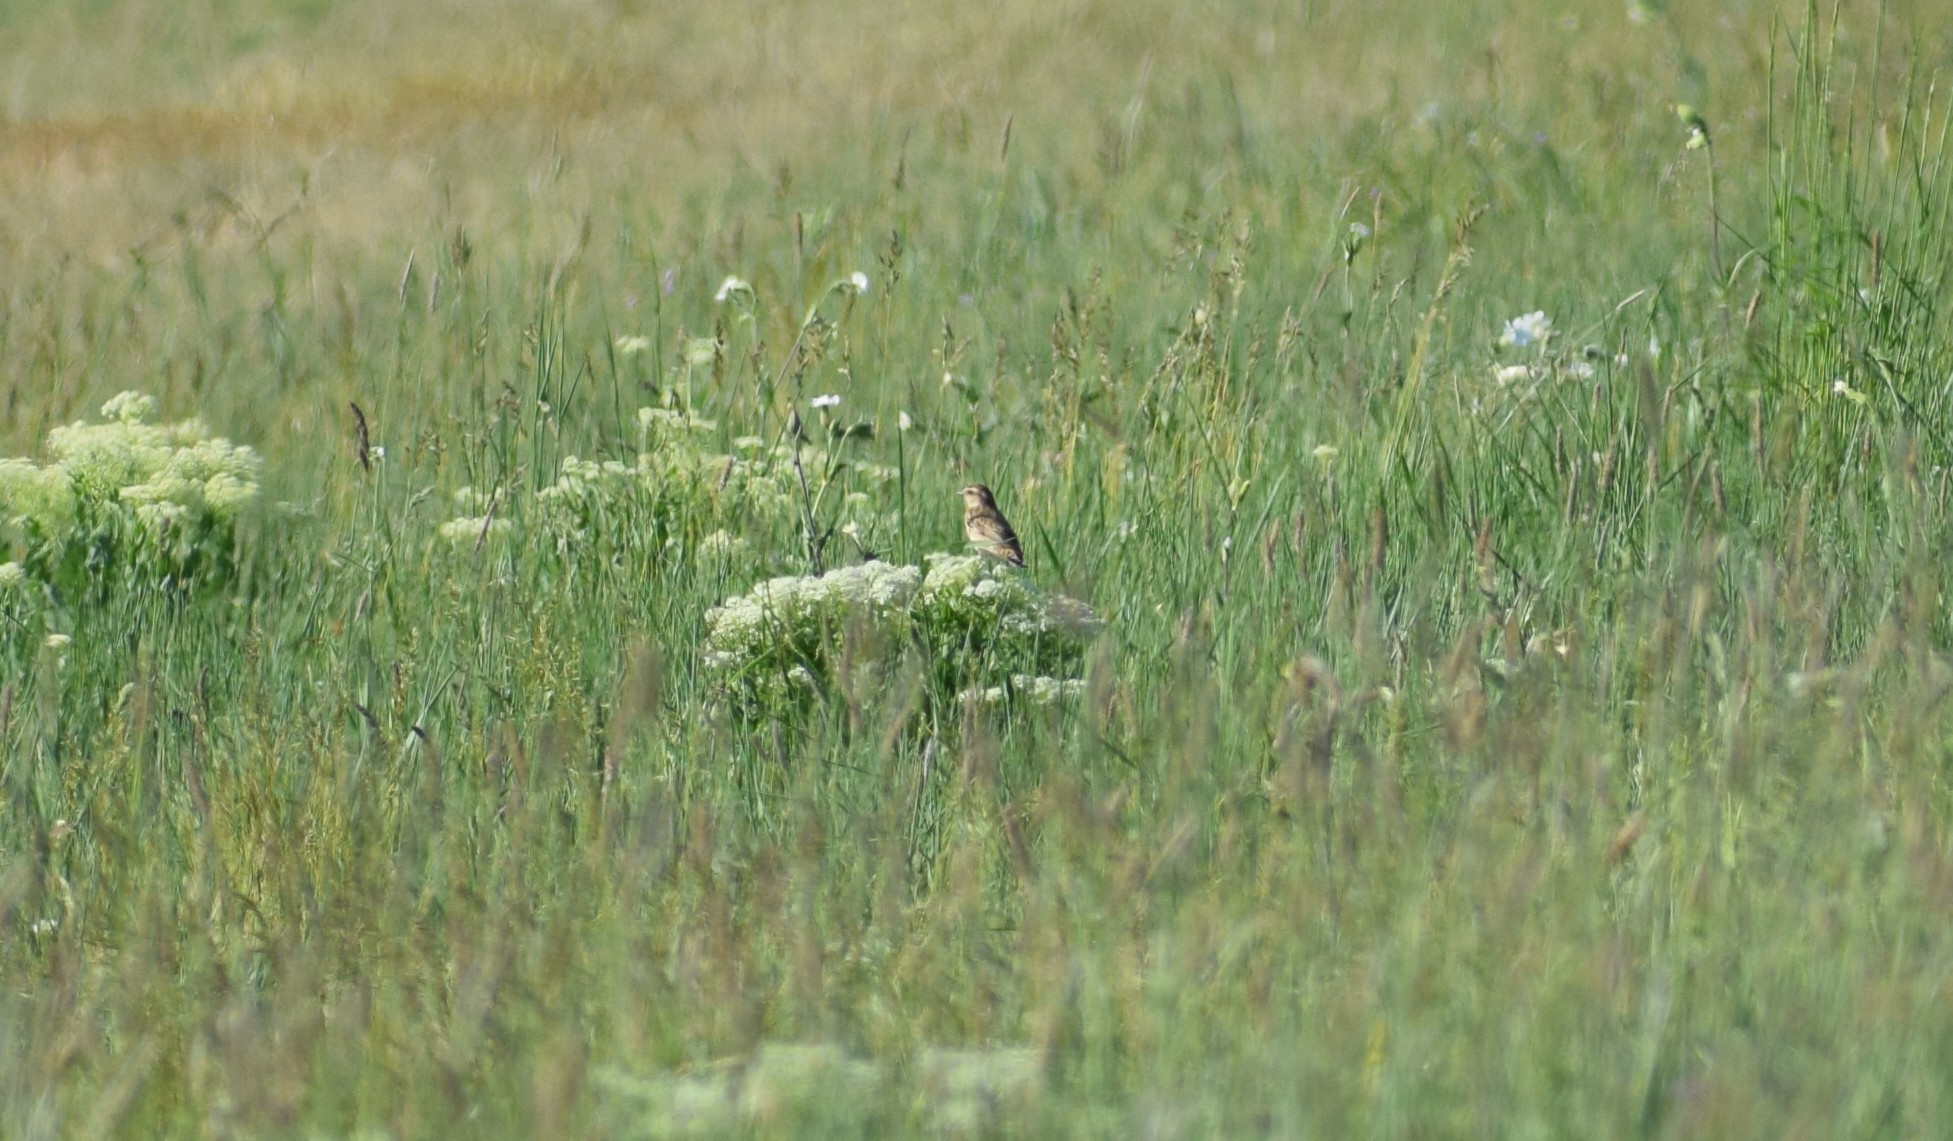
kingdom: Animalia
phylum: Chordata
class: Aves
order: Passeriformes
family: Muscicapidae
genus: Saxicola
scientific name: Saxicola rubetra
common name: Whinchat
